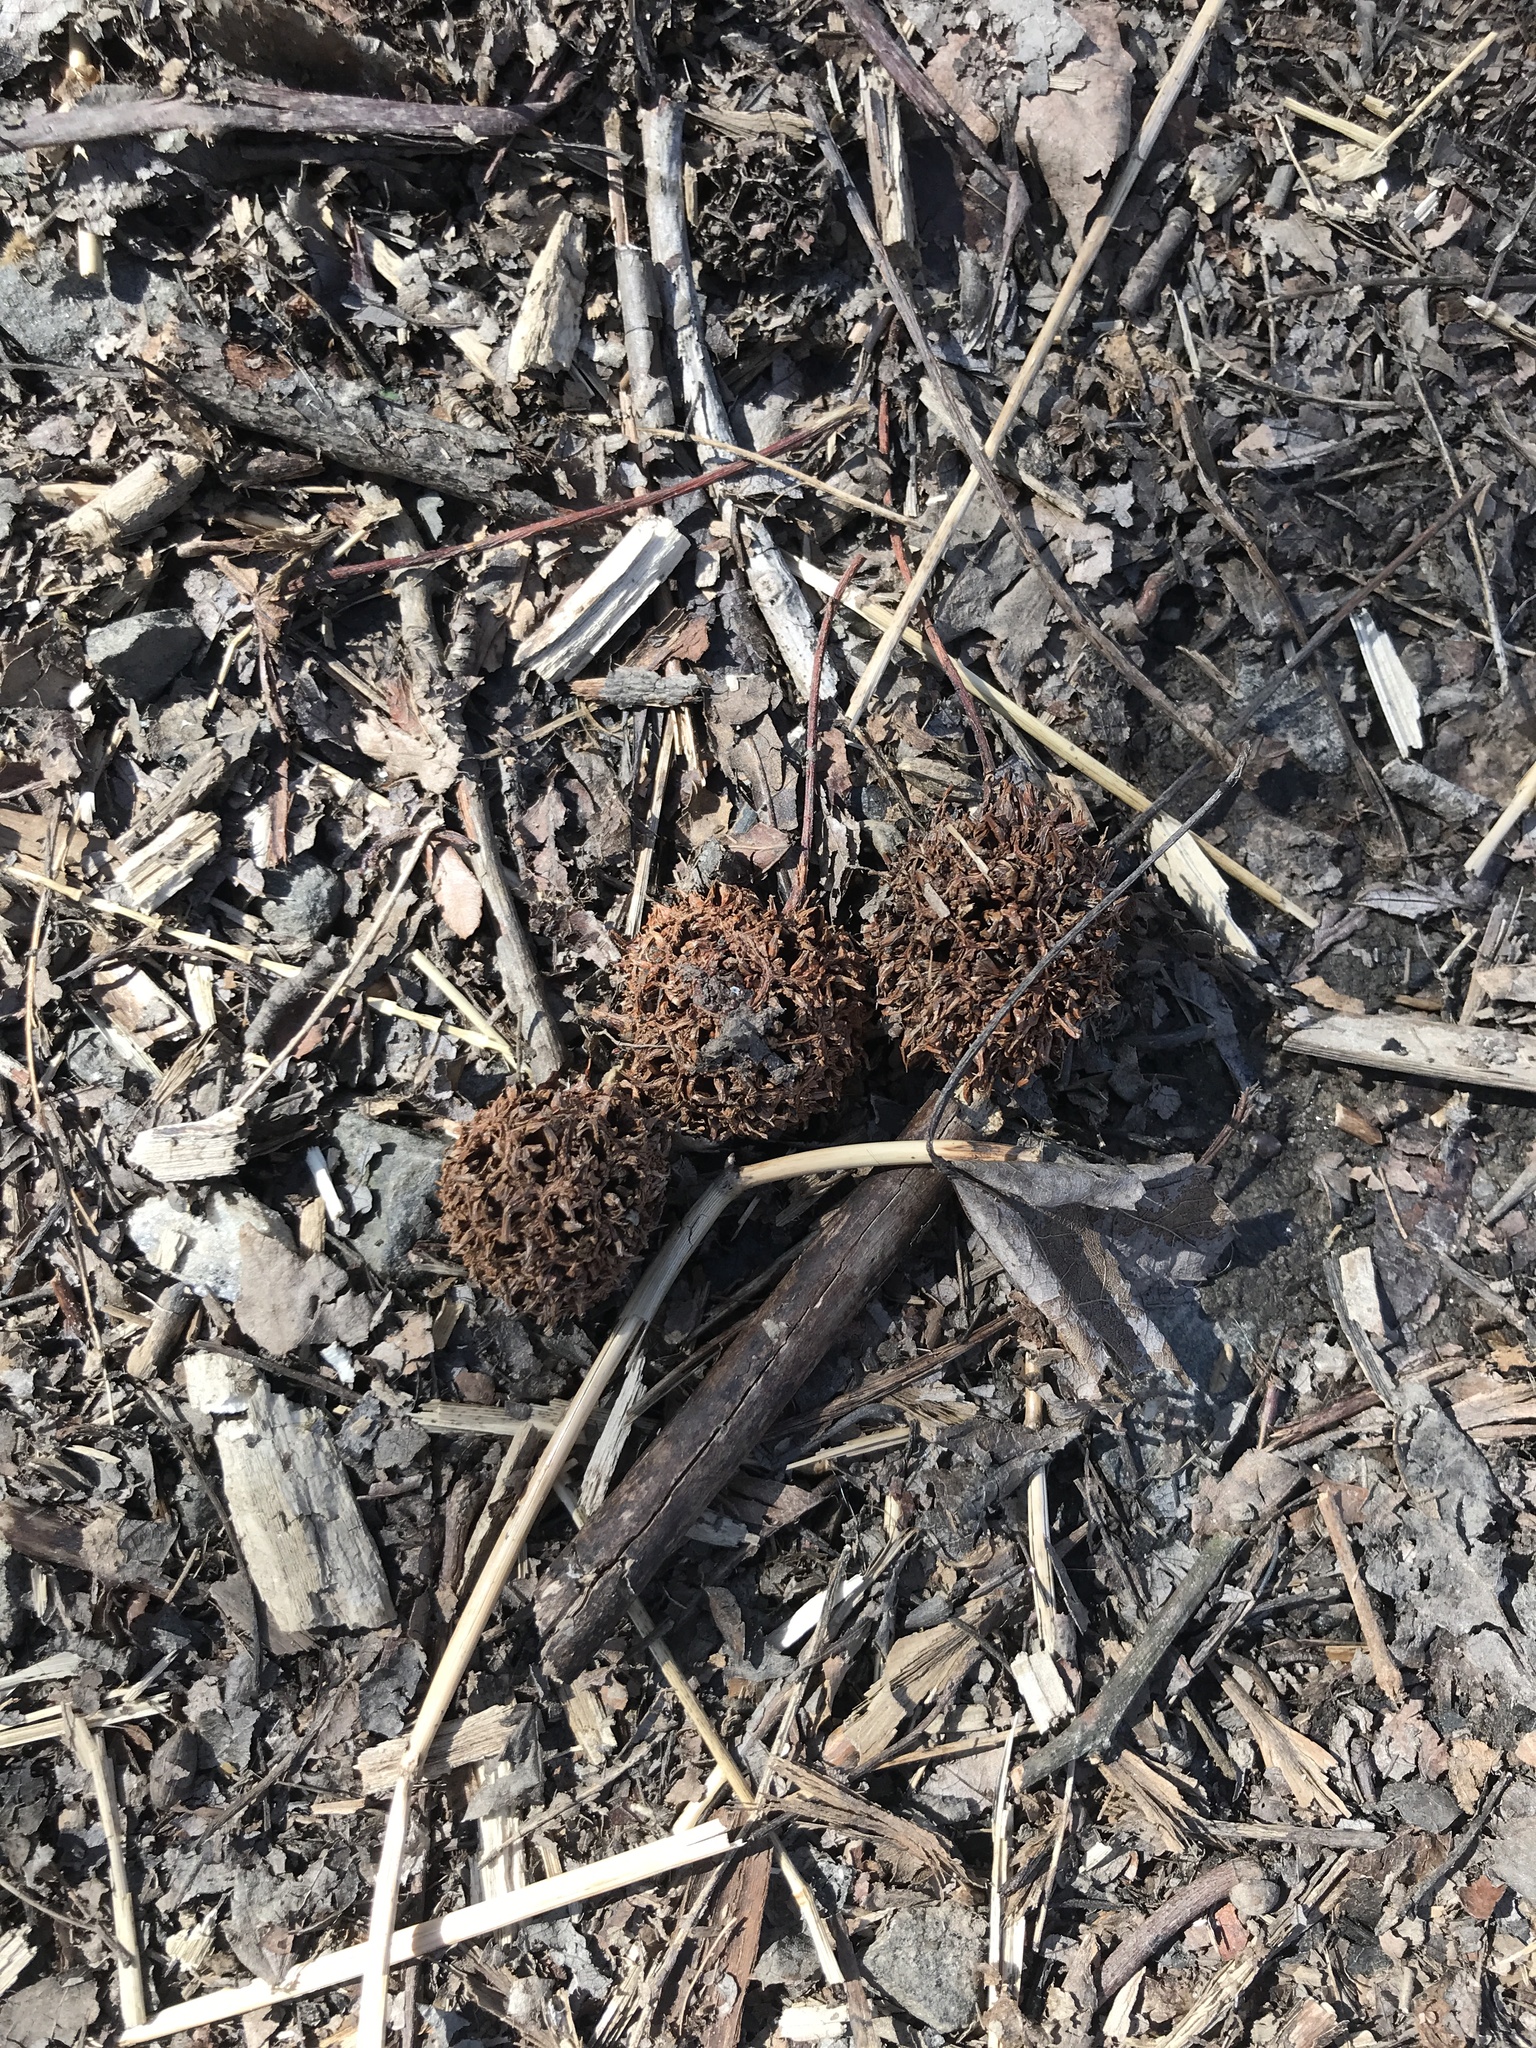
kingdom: Plantae
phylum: Tracheophyta
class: Magnoliopsida
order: Saxifragales
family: Altingiaceae
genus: Liquidambar
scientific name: Liquidambar styraciflua
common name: Sweet gum
